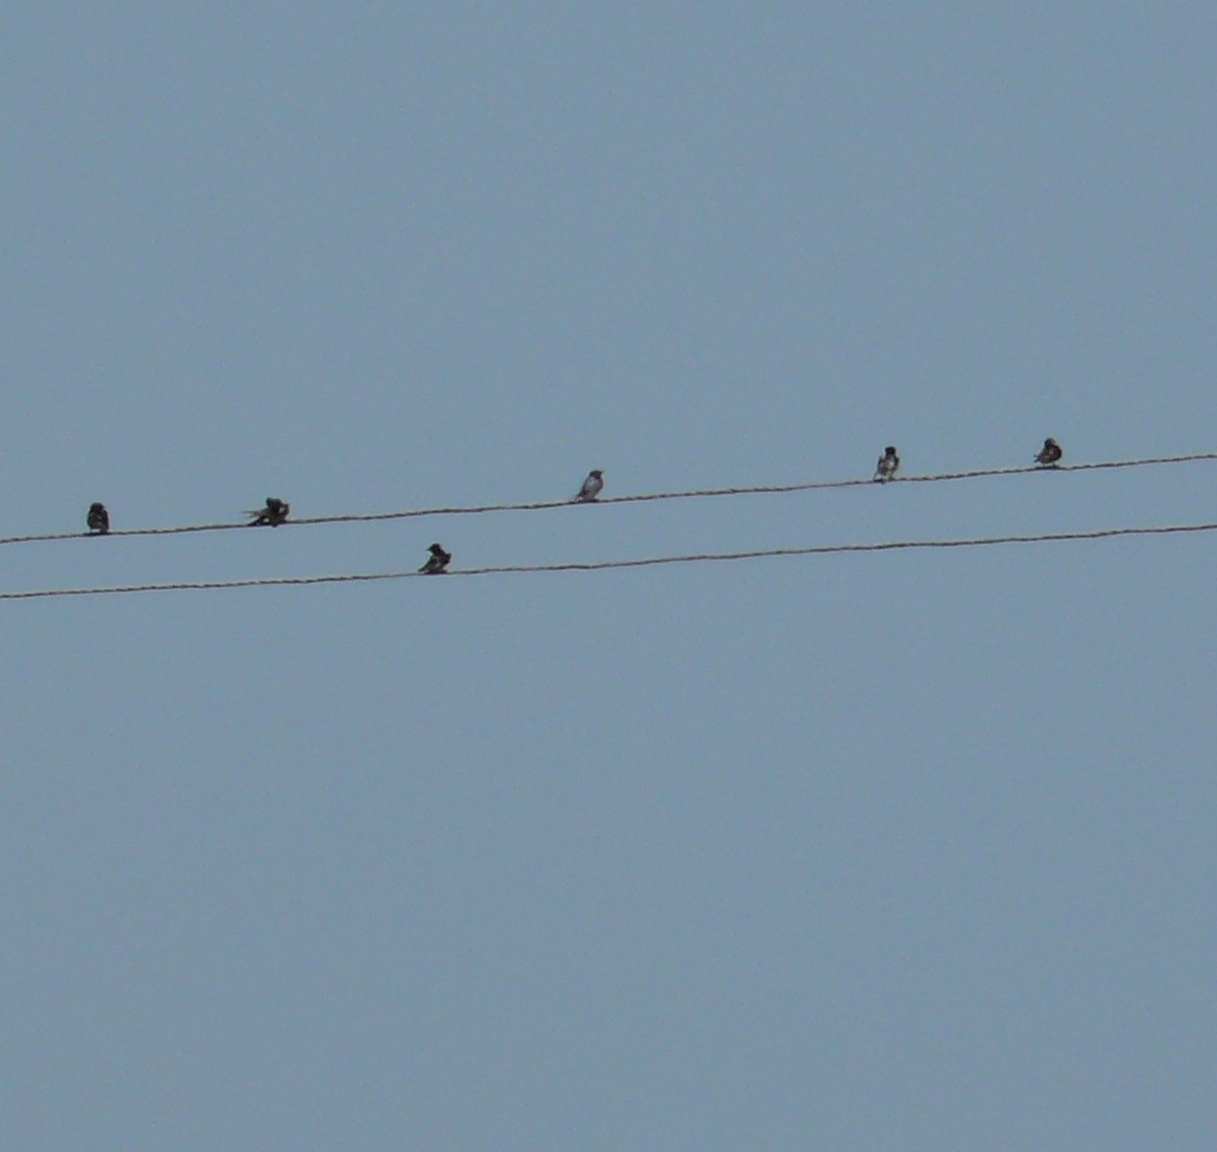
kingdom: Animalia
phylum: Chordata
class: Aves
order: Passeriformes
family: Hirundinidae
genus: Hirundo
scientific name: Hirundo rustica
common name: Barn swallow
